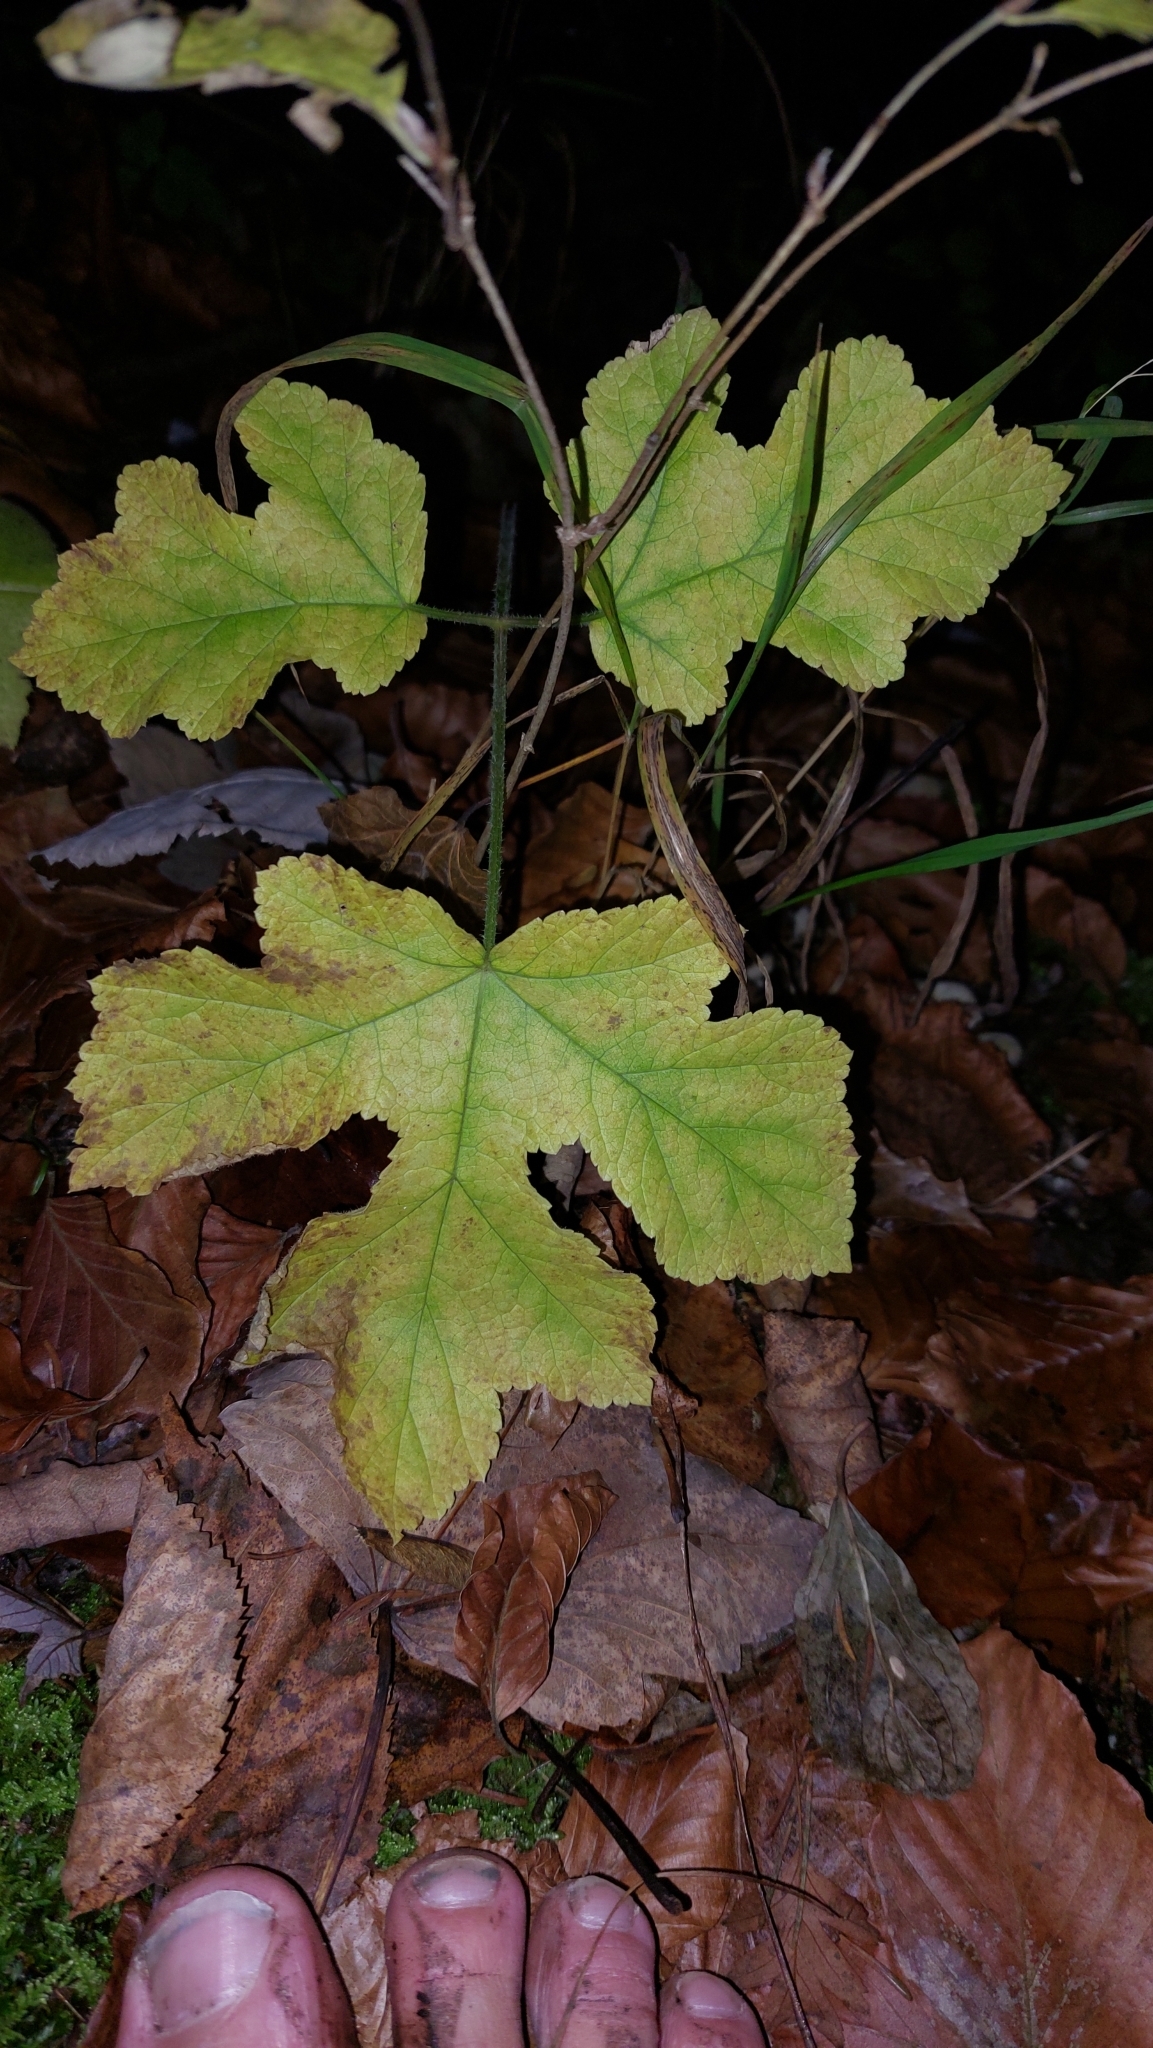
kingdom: Plantae
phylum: Tracheophyta
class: Magnoliopsida
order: Apiales
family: Apiaceae
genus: Heracleum
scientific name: Heracleum sphondylium
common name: Hogweed
